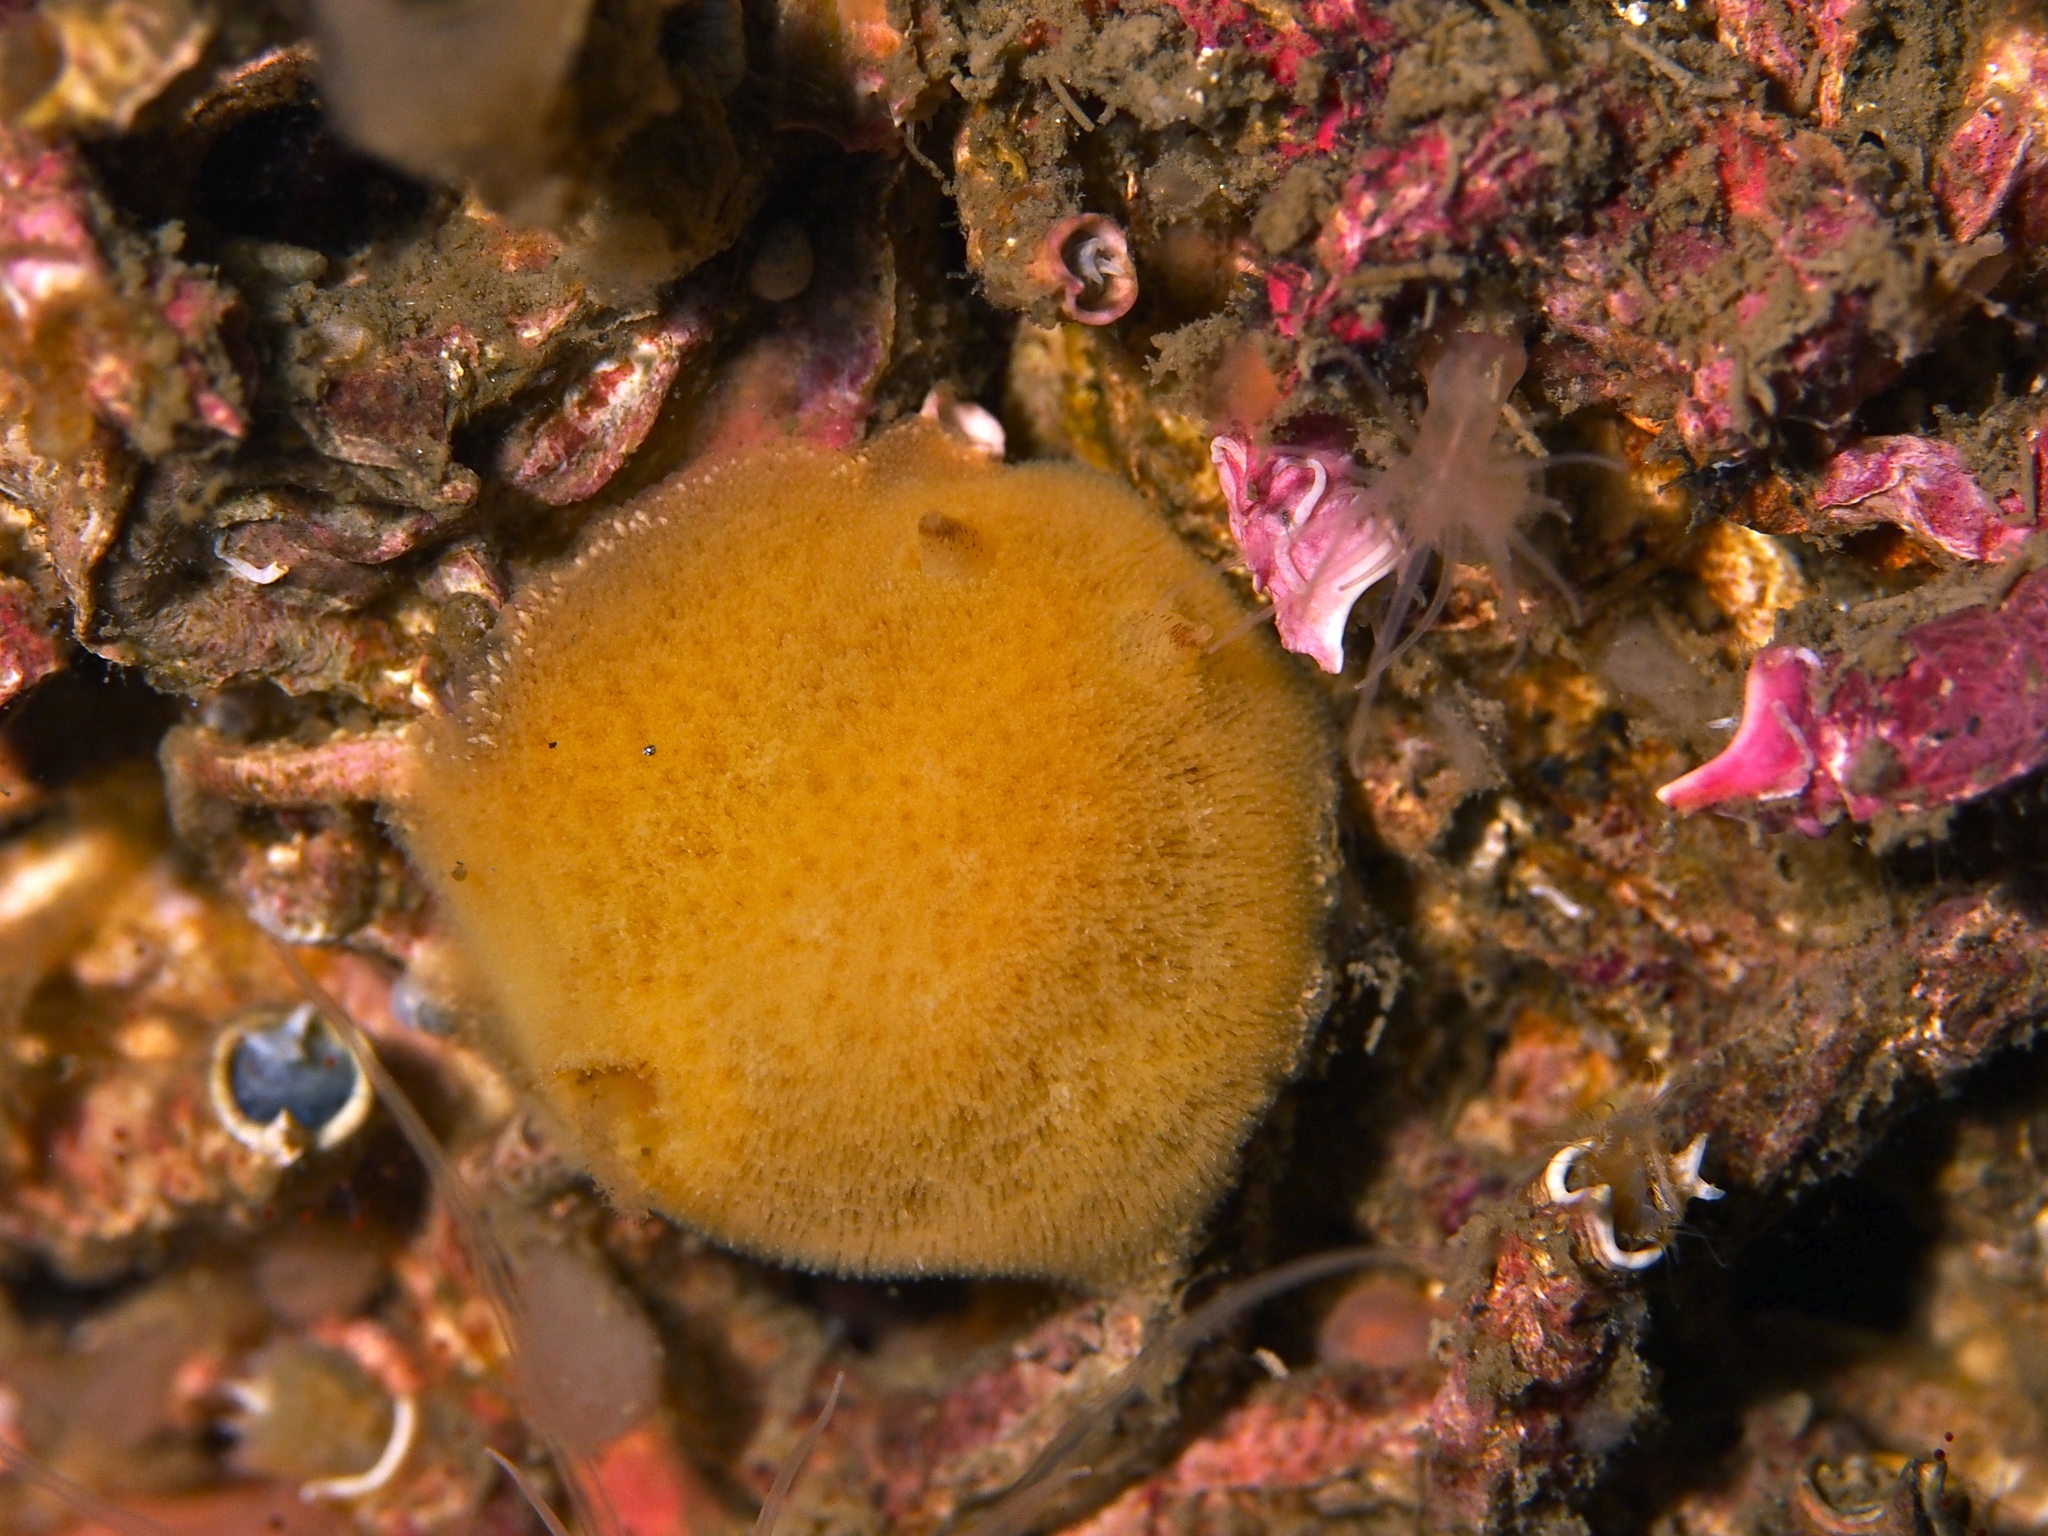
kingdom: Animalia
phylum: Mollusca
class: Gastropoda
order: Nudibranchia
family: Discodorididae
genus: Jorunna
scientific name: Jorunna tomentosa
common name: Grey sea slug
